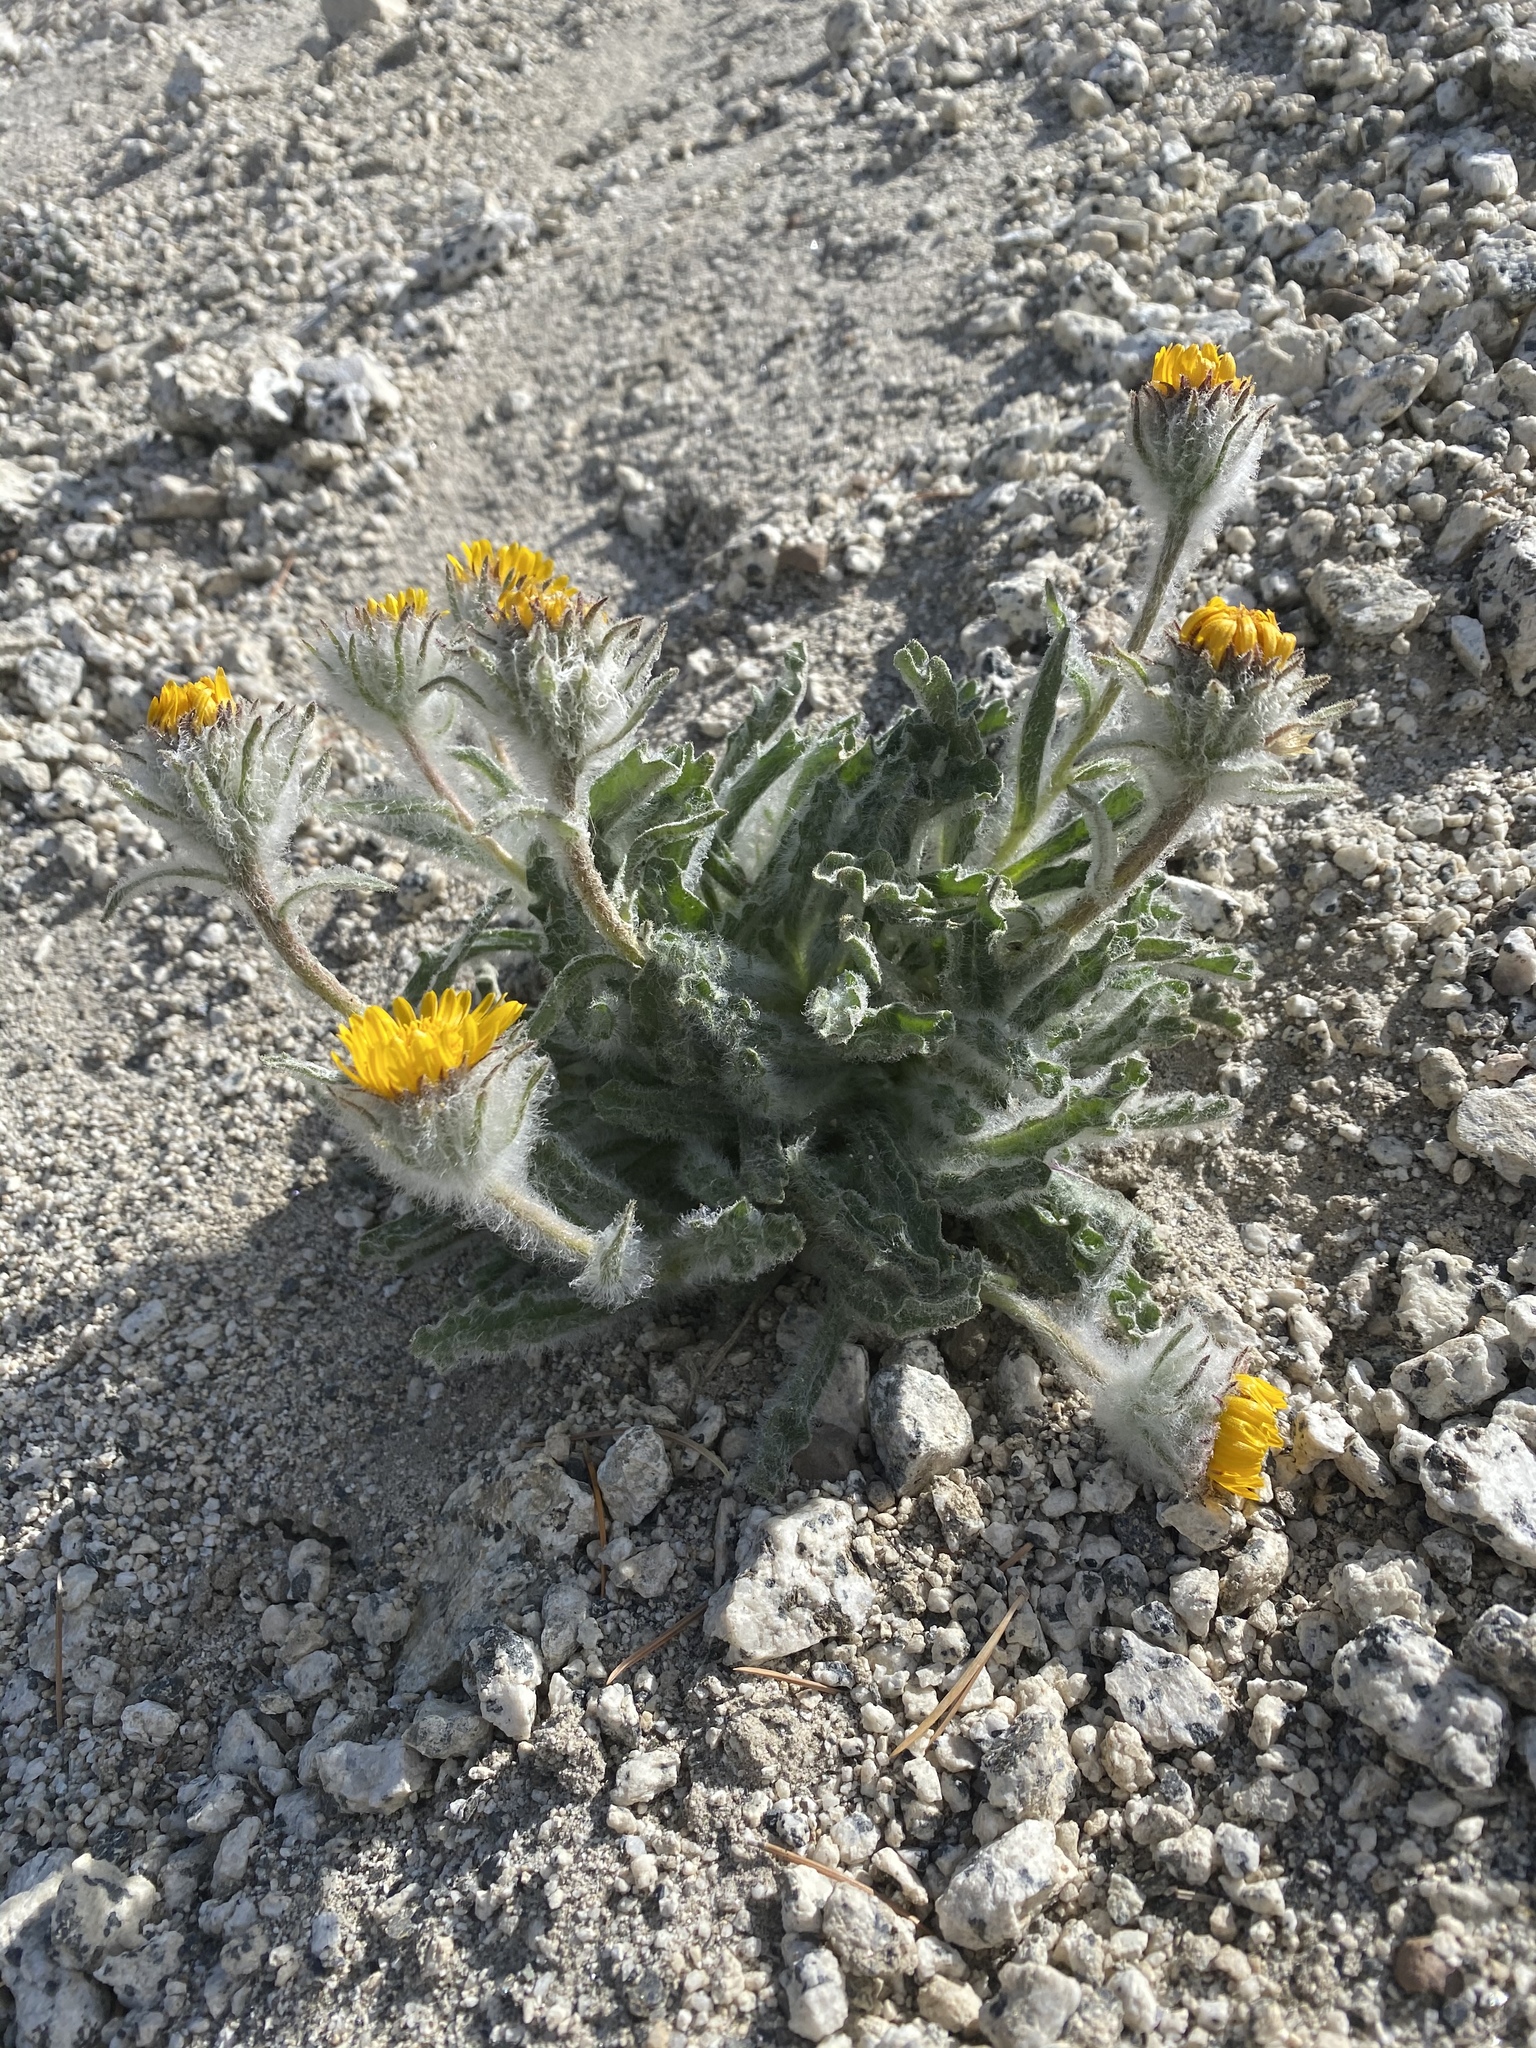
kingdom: Plantae
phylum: Tracheophyta
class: Magnoliopsida
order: Asterales
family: Asteraceae
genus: Hulsea
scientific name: Hulsea algida
